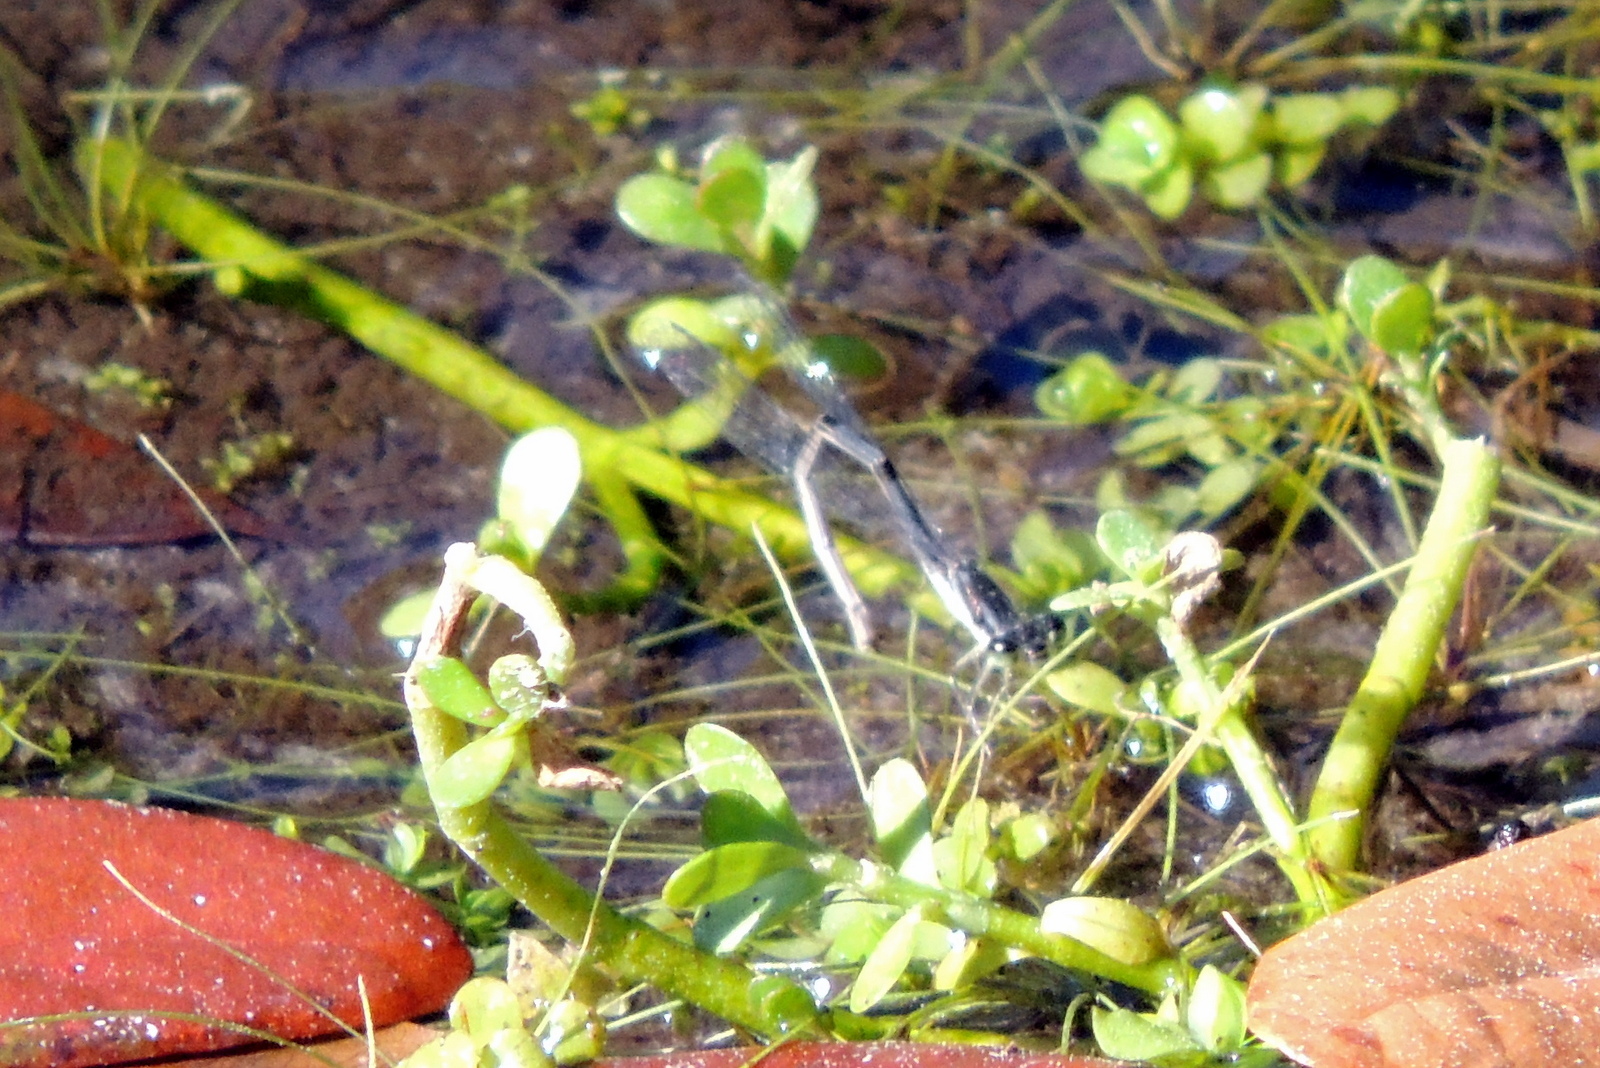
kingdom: Animalia
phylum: Arthropoda
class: Insecta
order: Odonata
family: Coenagrionidae
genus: Ischnura
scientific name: Ischnura posita
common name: Fragile forktail
